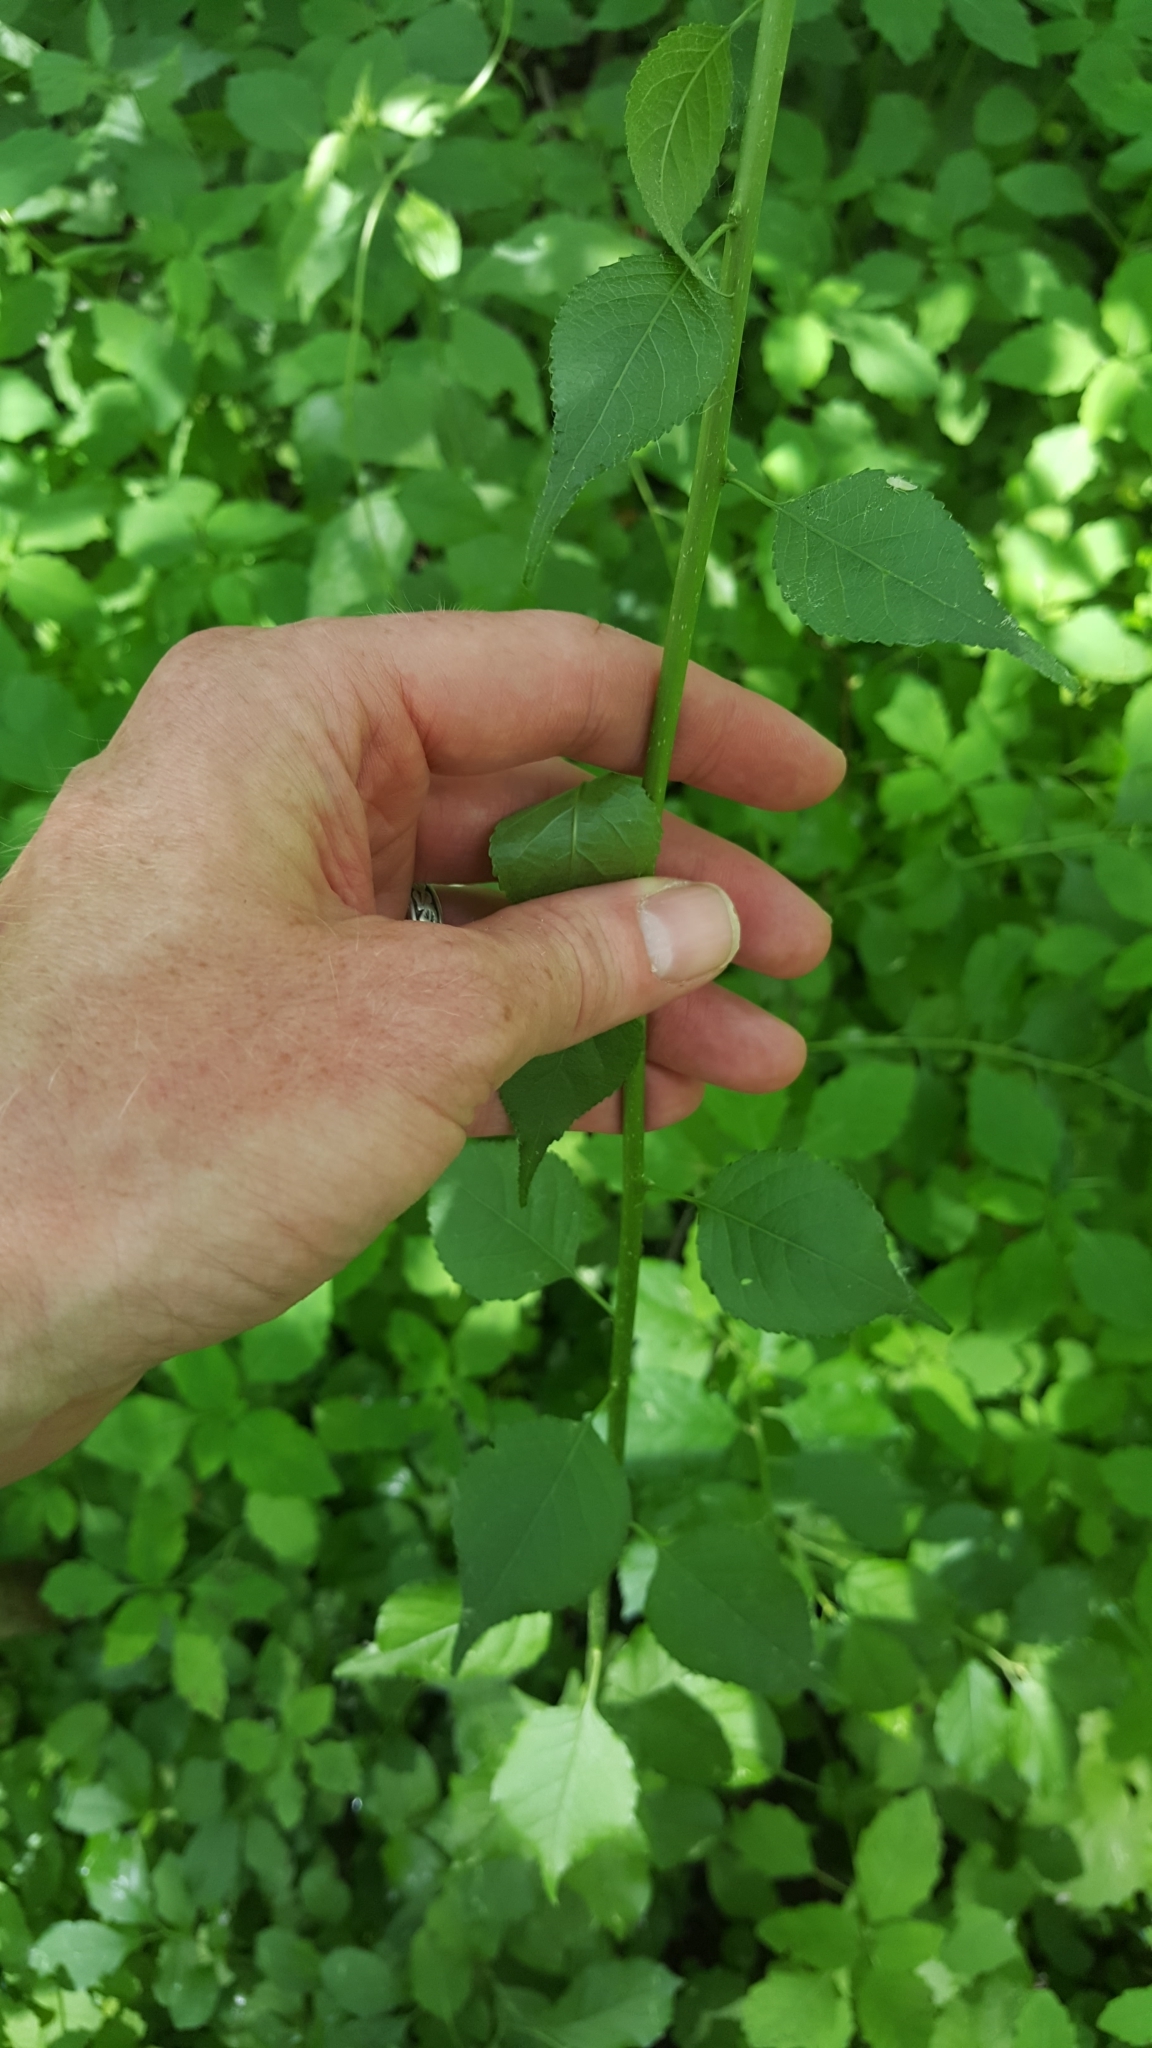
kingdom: Plantae
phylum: Tracheophyta
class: Magnoliopsida
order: Celastrales
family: Celastraceae
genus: Celastrus
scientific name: Celastrus orbiculatus
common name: Oriental bittersweet
